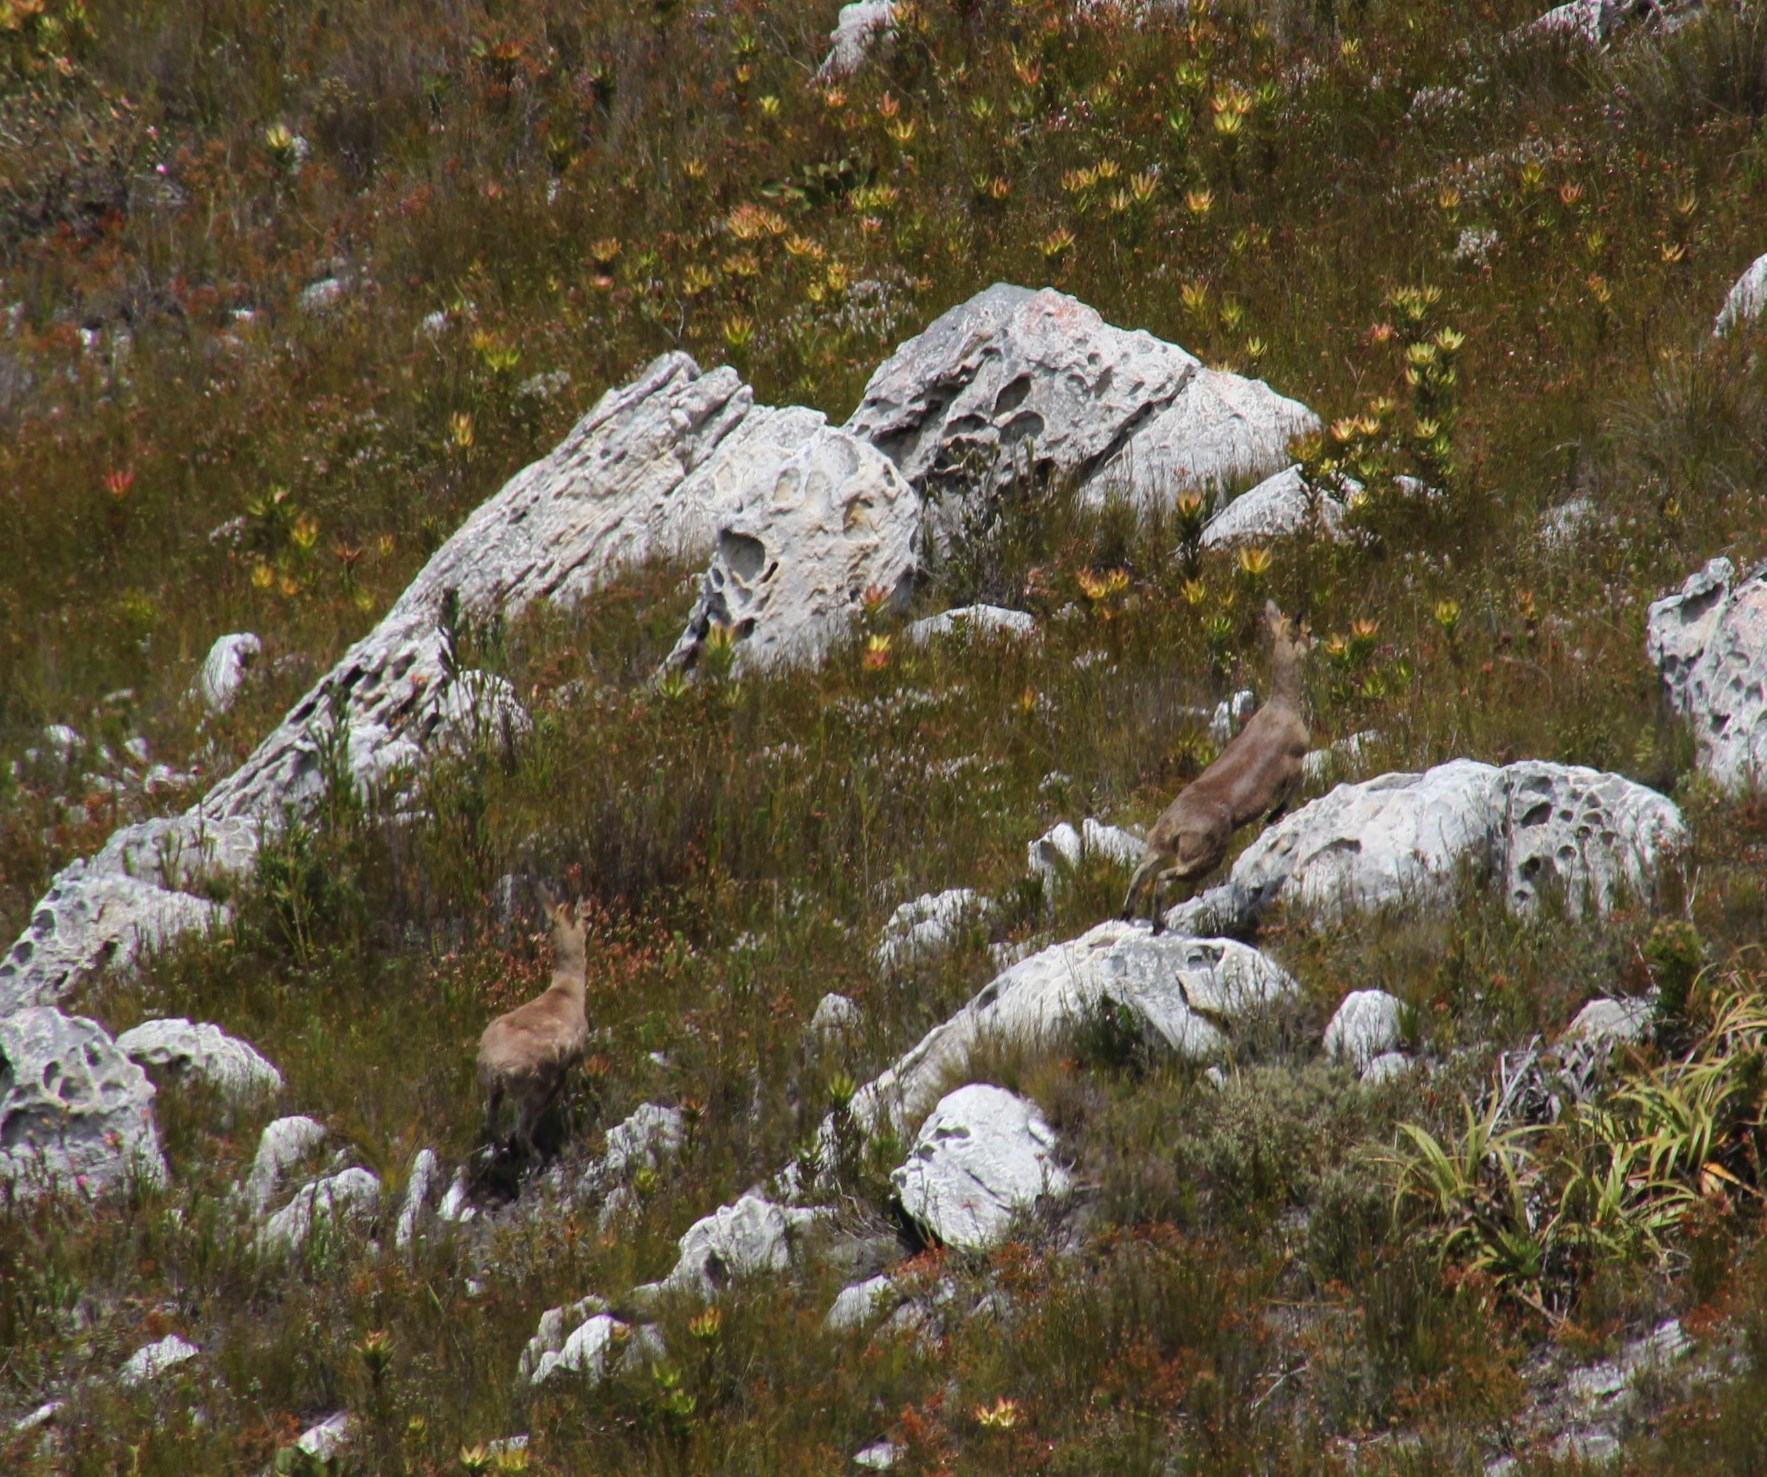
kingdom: Animalia
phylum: Chordata
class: Mammalia
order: Artiodactyla
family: Bovidae
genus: Oreotragus
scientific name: Oreotragus oreotragus
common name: Klipspringer
